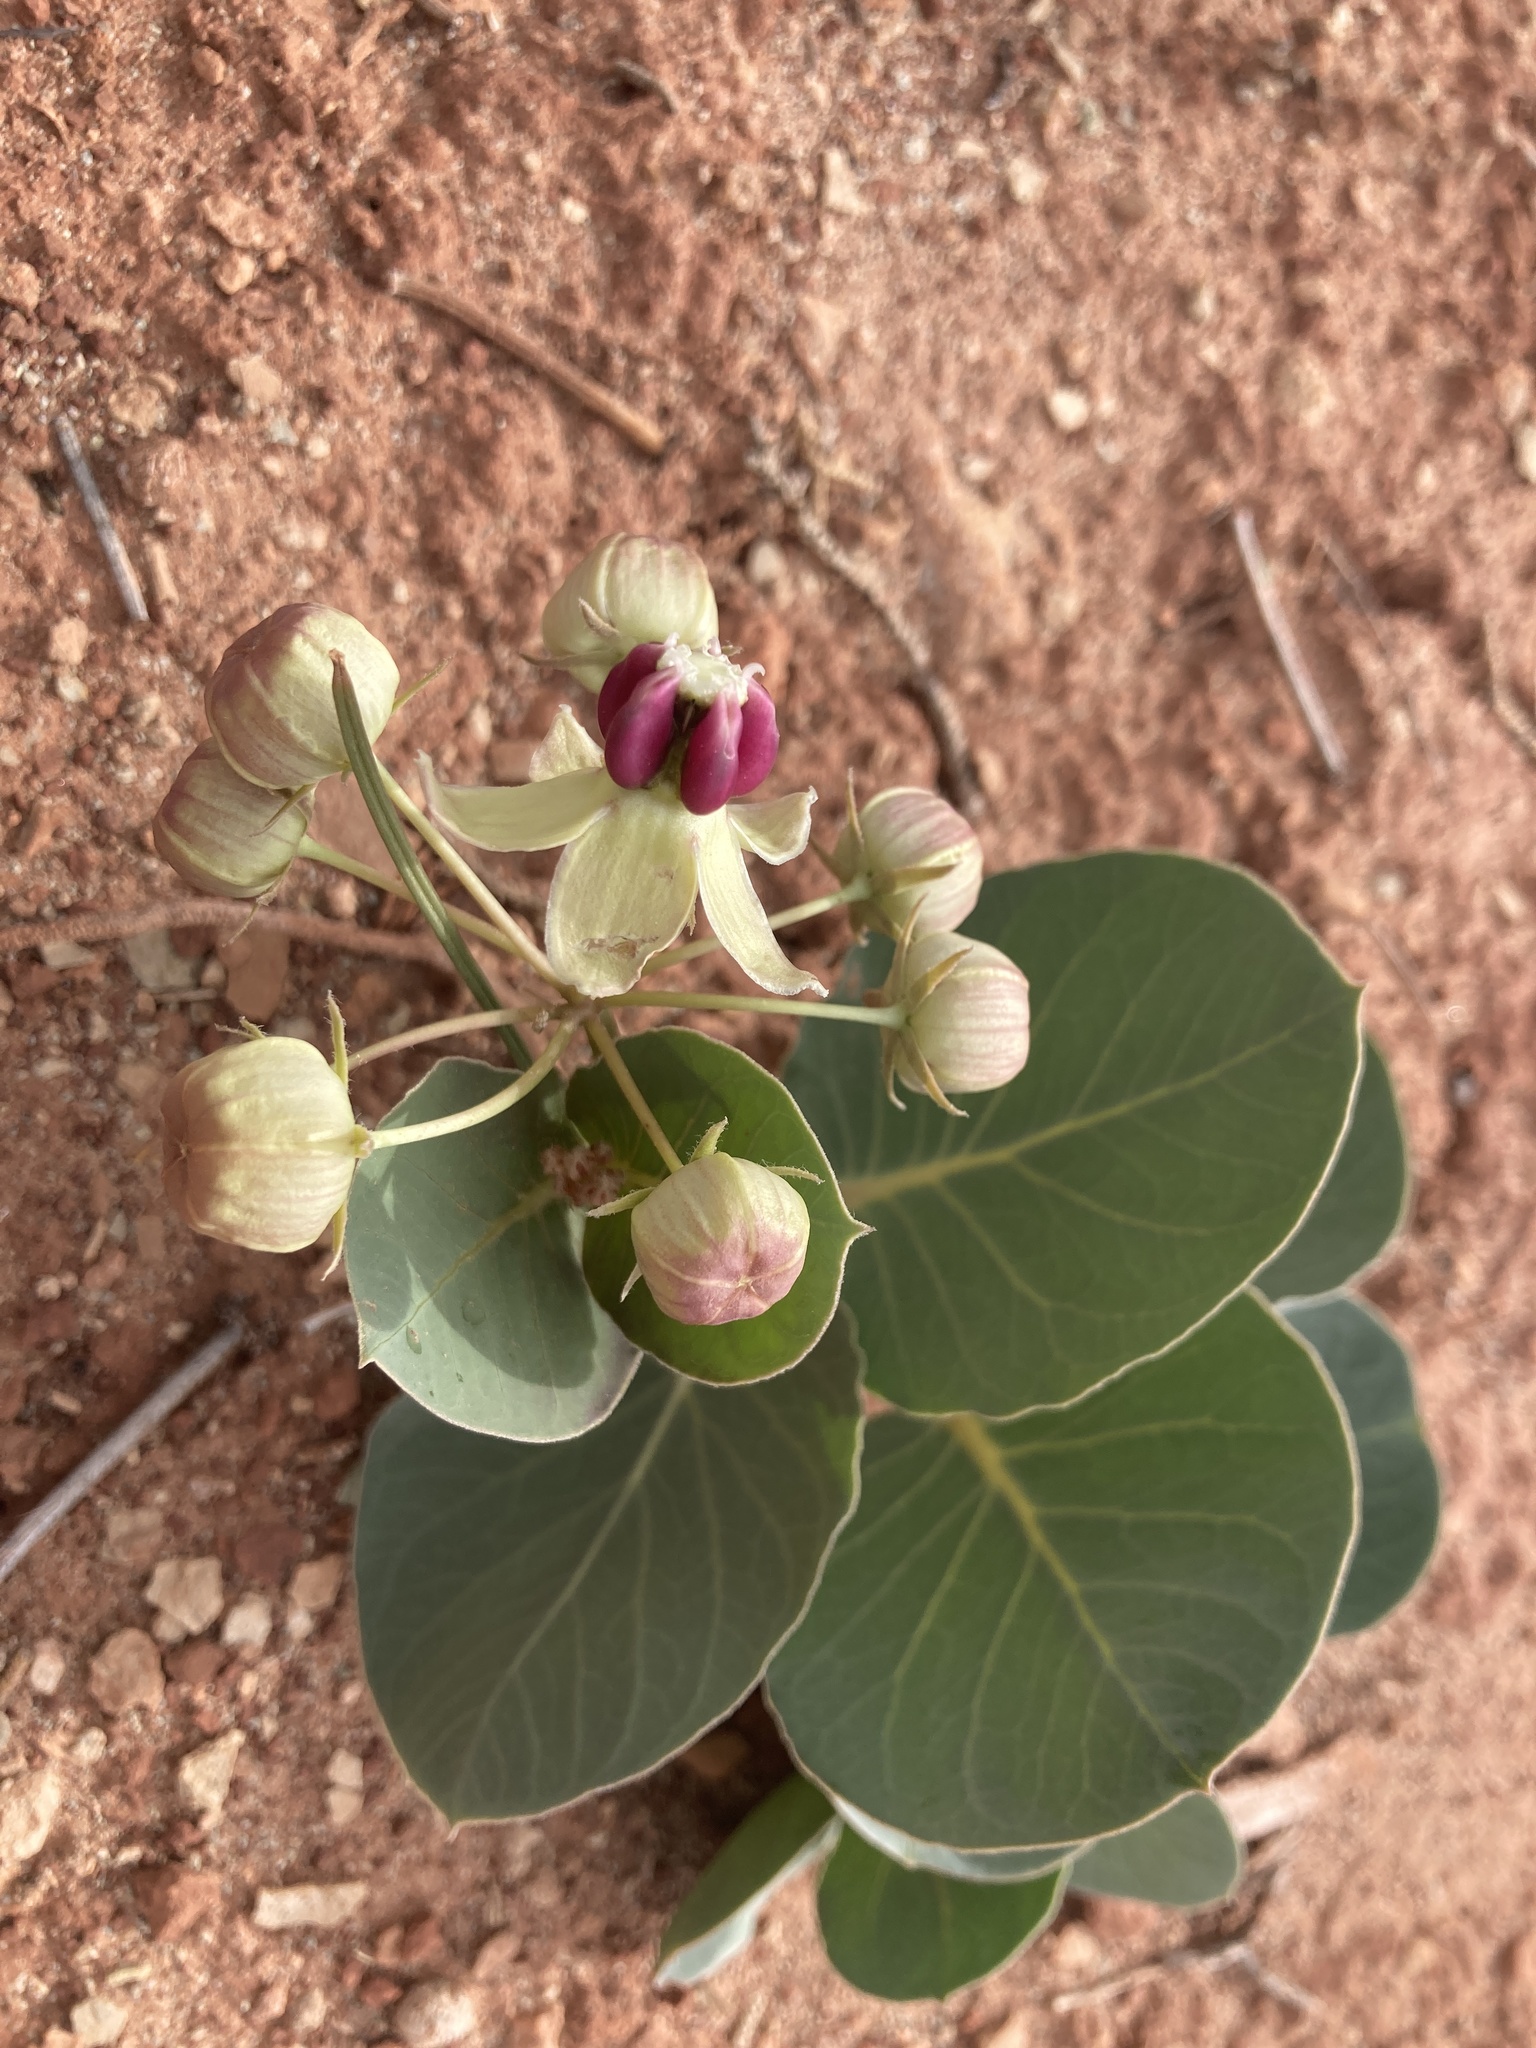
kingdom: Plantae
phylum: Tracheophyta
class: Magnoliopsida
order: Gentianales
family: Apocynaceae
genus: Asclepias
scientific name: Asclepias cryptoceras
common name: Humboldt mountains milkweed
